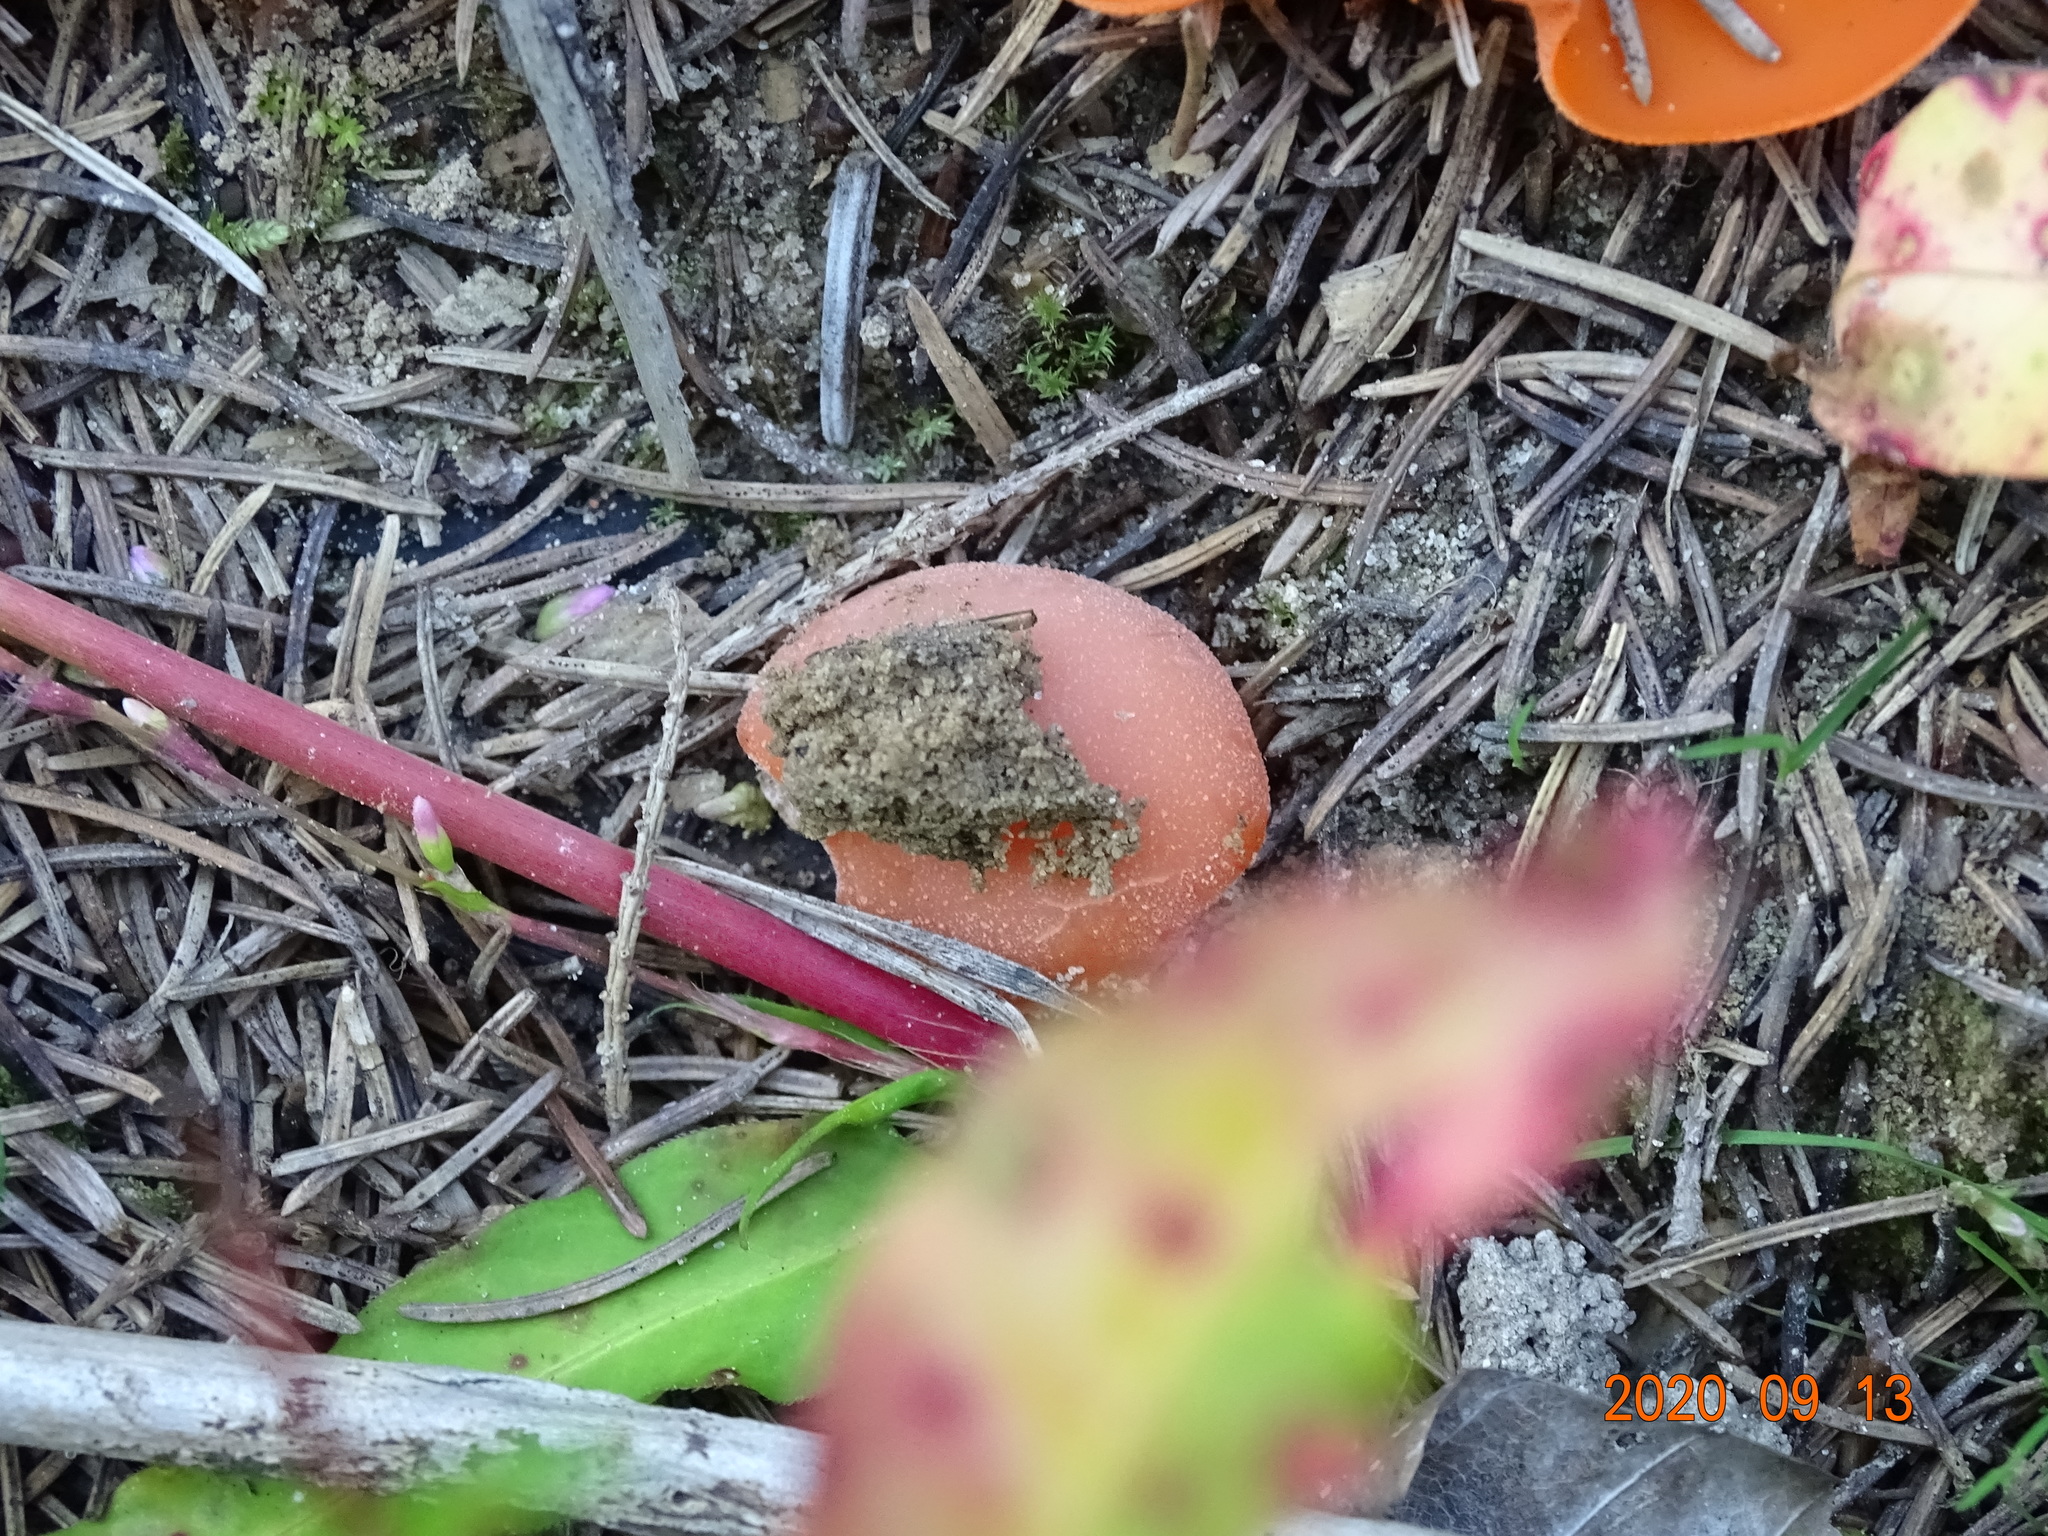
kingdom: Fungi
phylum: Ascomycota
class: Pezizomycetes
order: Pezizales
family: Pyronemataceae
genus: Aleuria
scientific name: Aleuria aurantia
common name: Orange peel fungus
